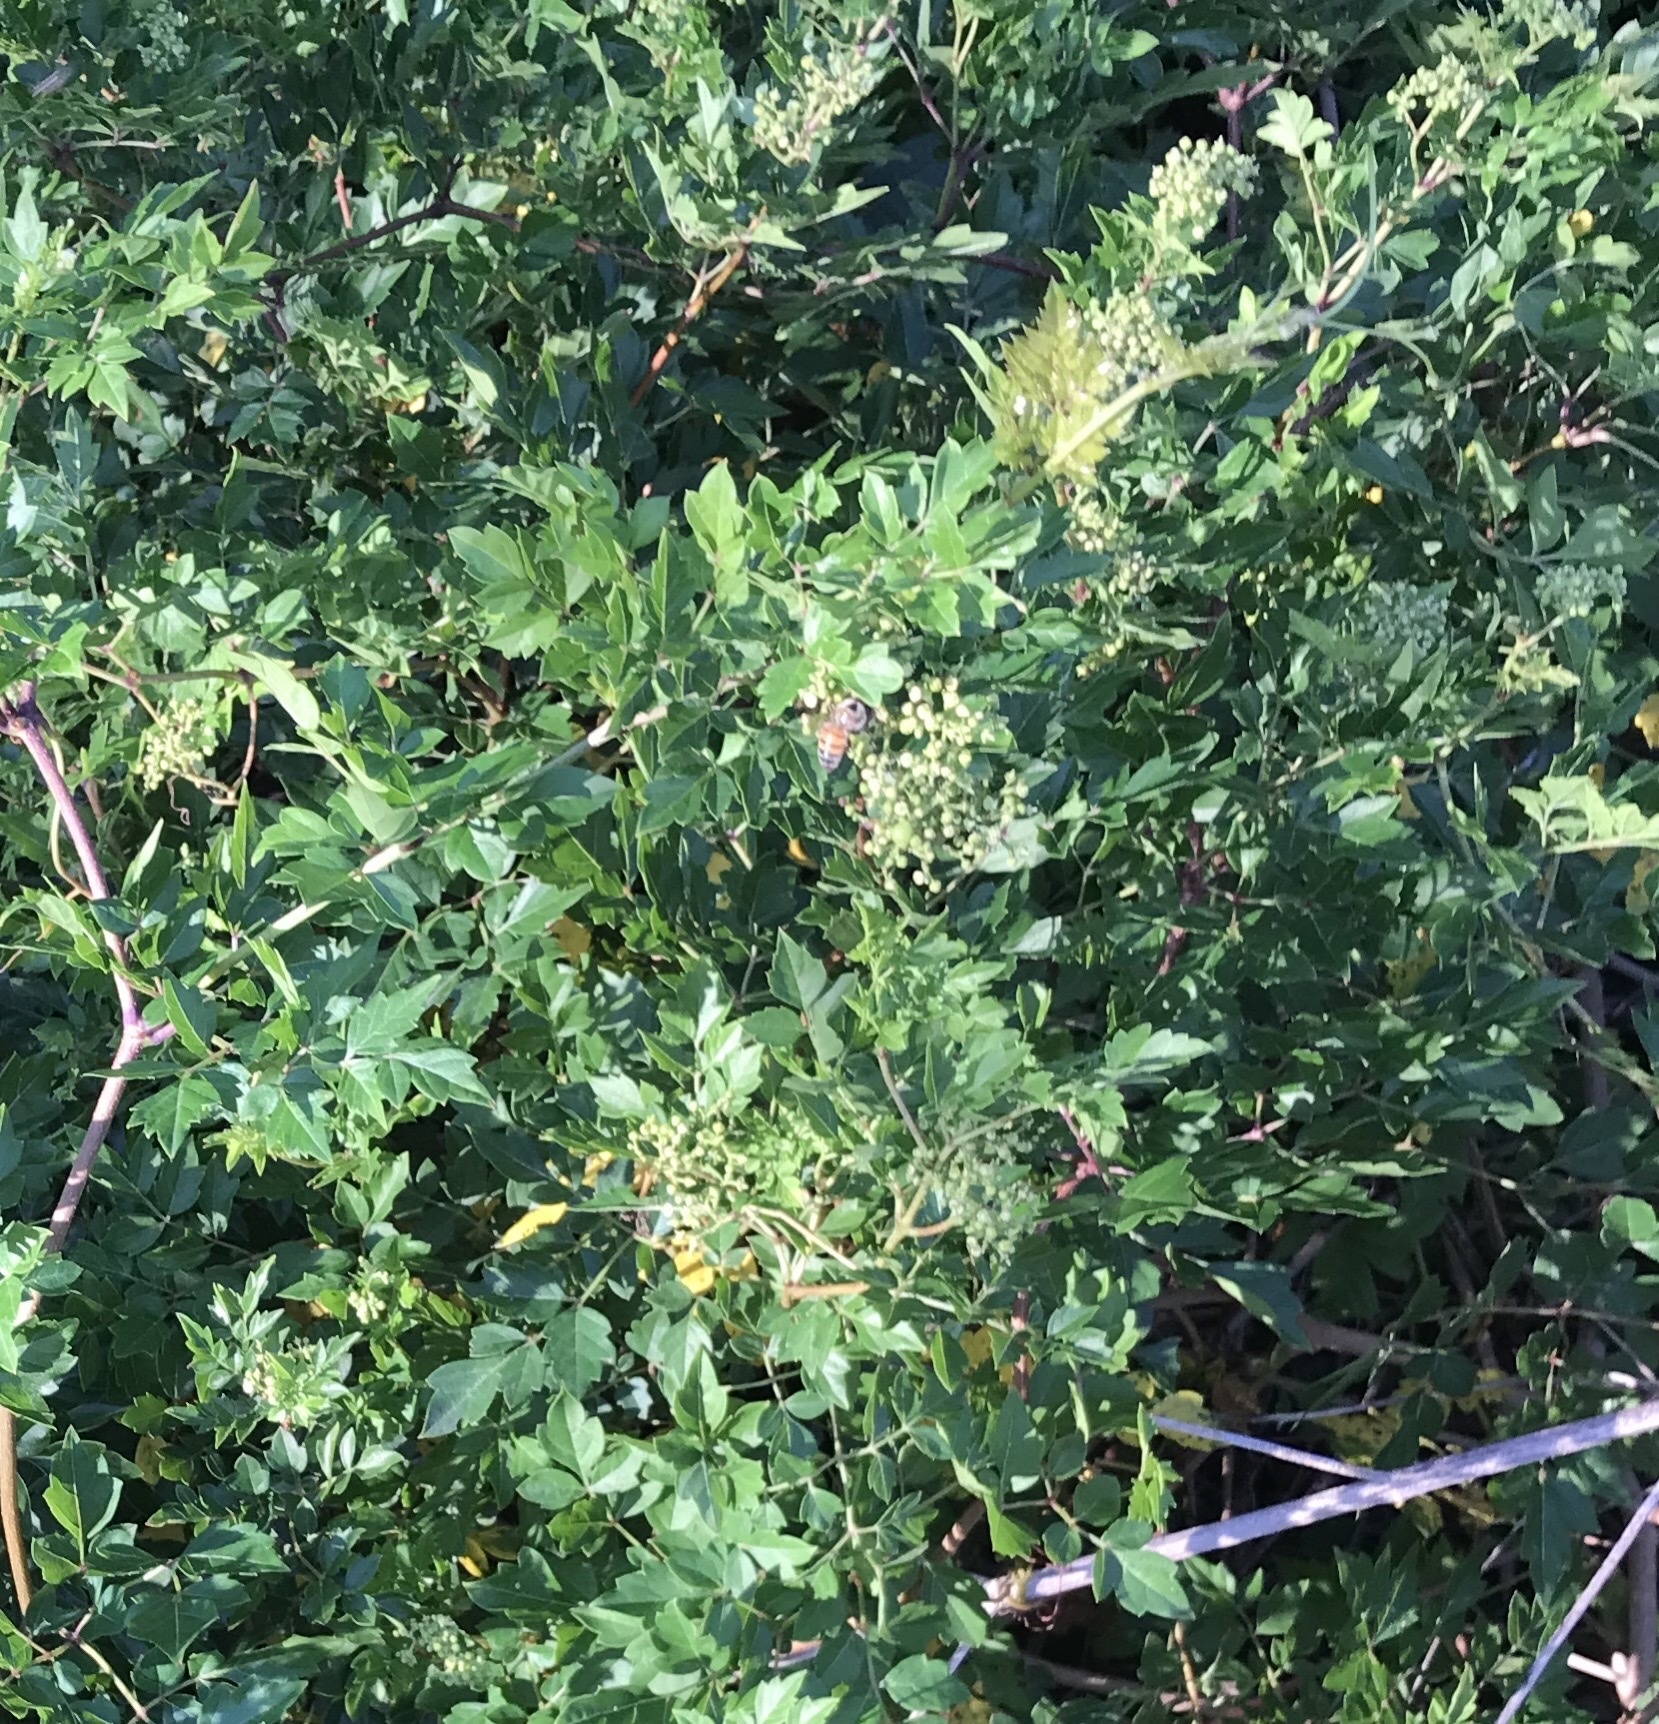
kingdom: Plantae
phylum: Tracheophyta
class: Magnoliopsida
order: Vitales
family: Vitaceae
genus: Nekemias
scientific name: Nekemias arborea
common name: Peppervine
